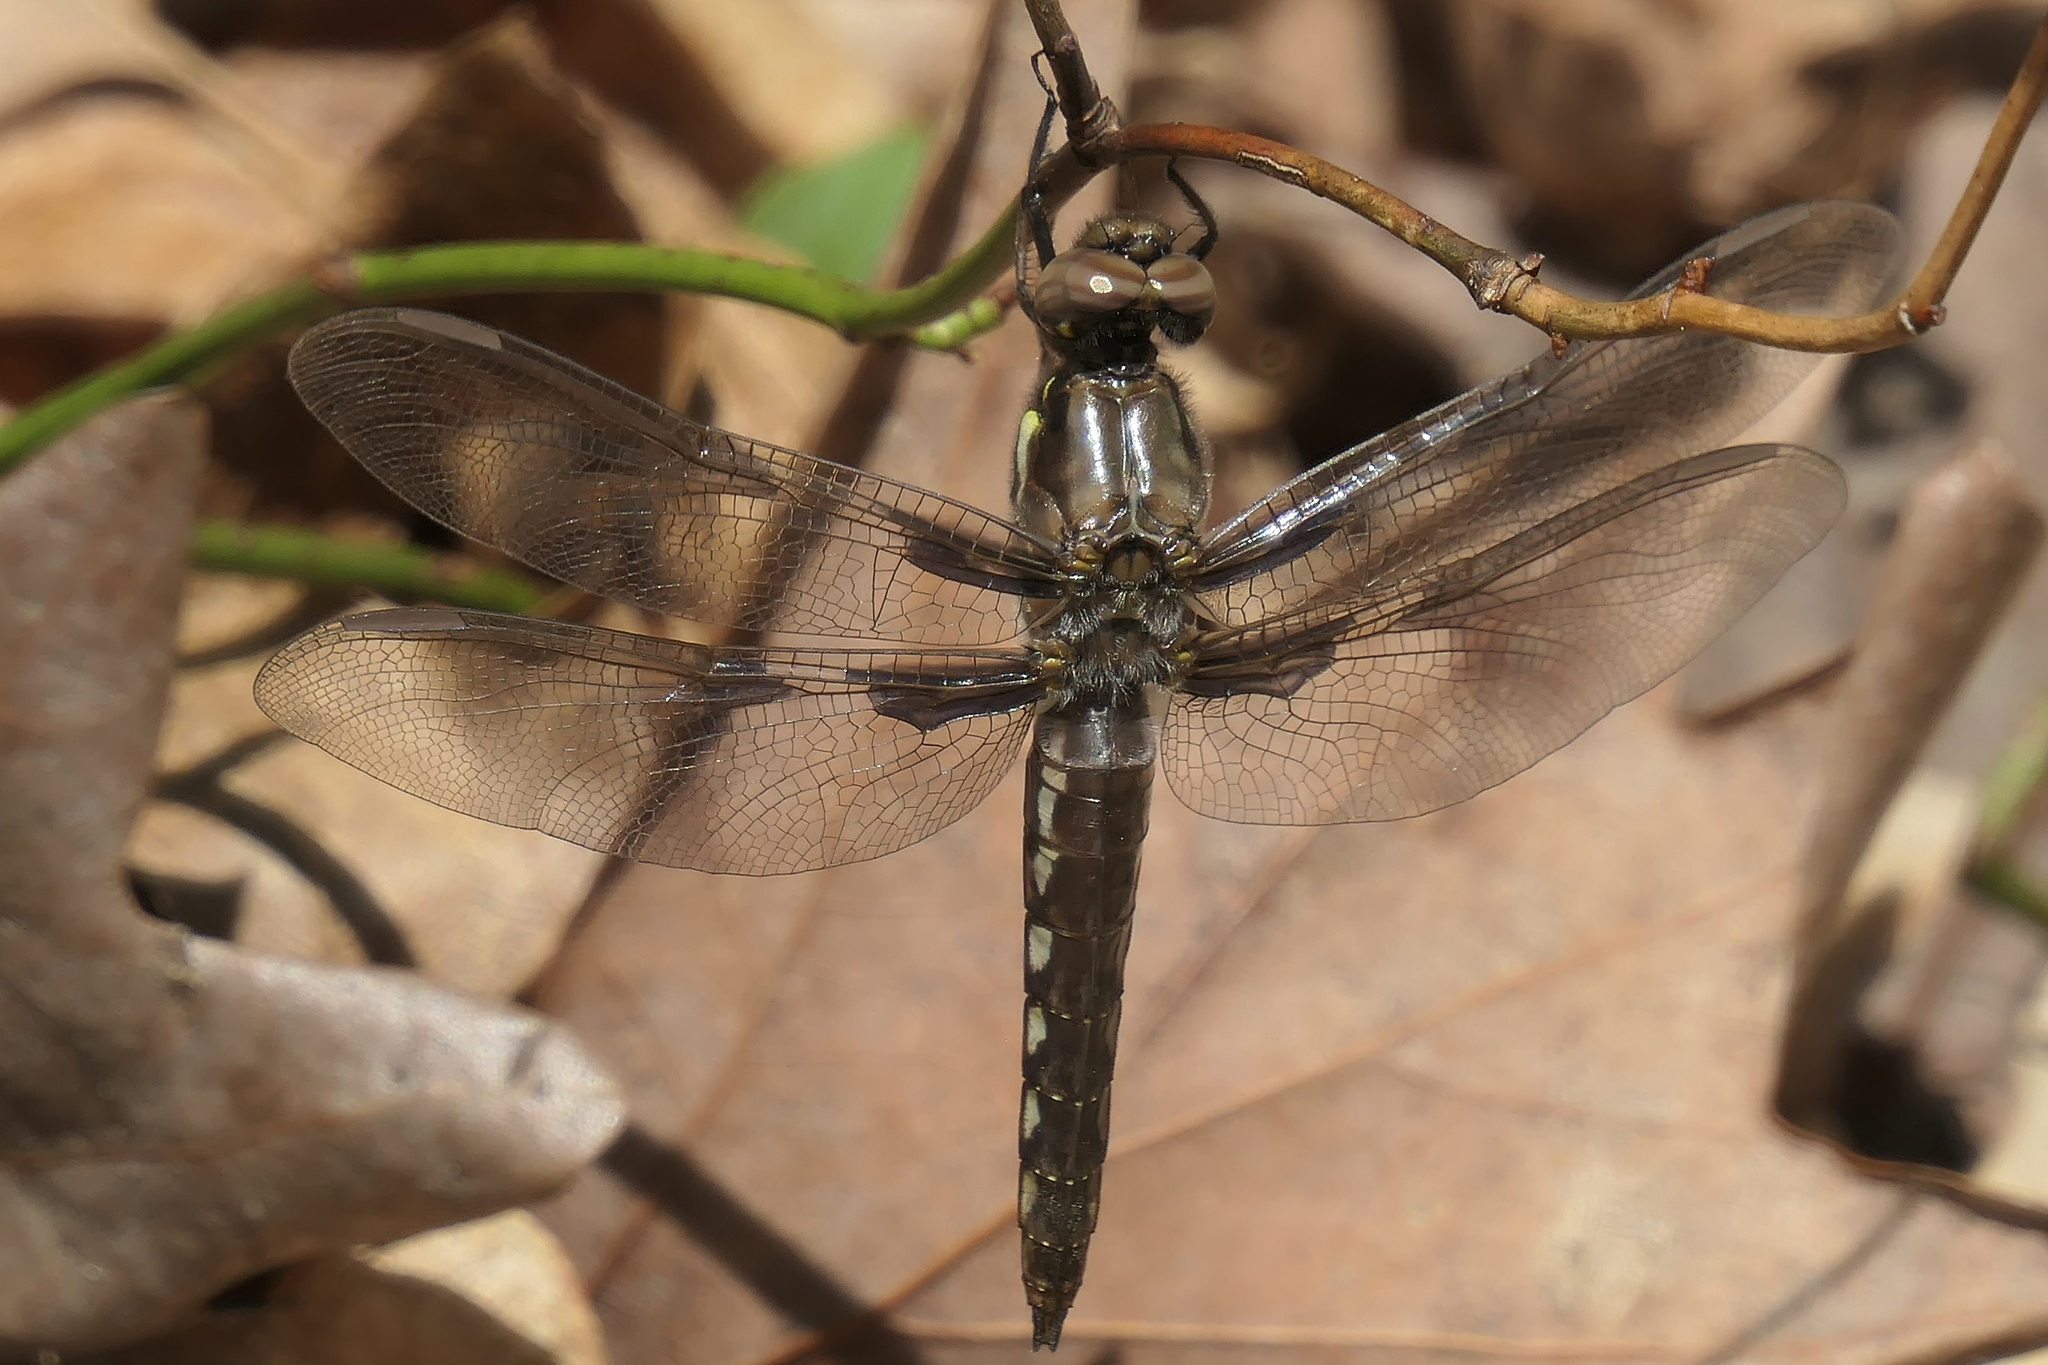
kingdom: Animalia
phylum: Arthropoda
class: Insecta
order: Odonata
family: Libellulidae
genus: Plathemis
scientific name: Plathemis lydia
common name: Common whitetail
